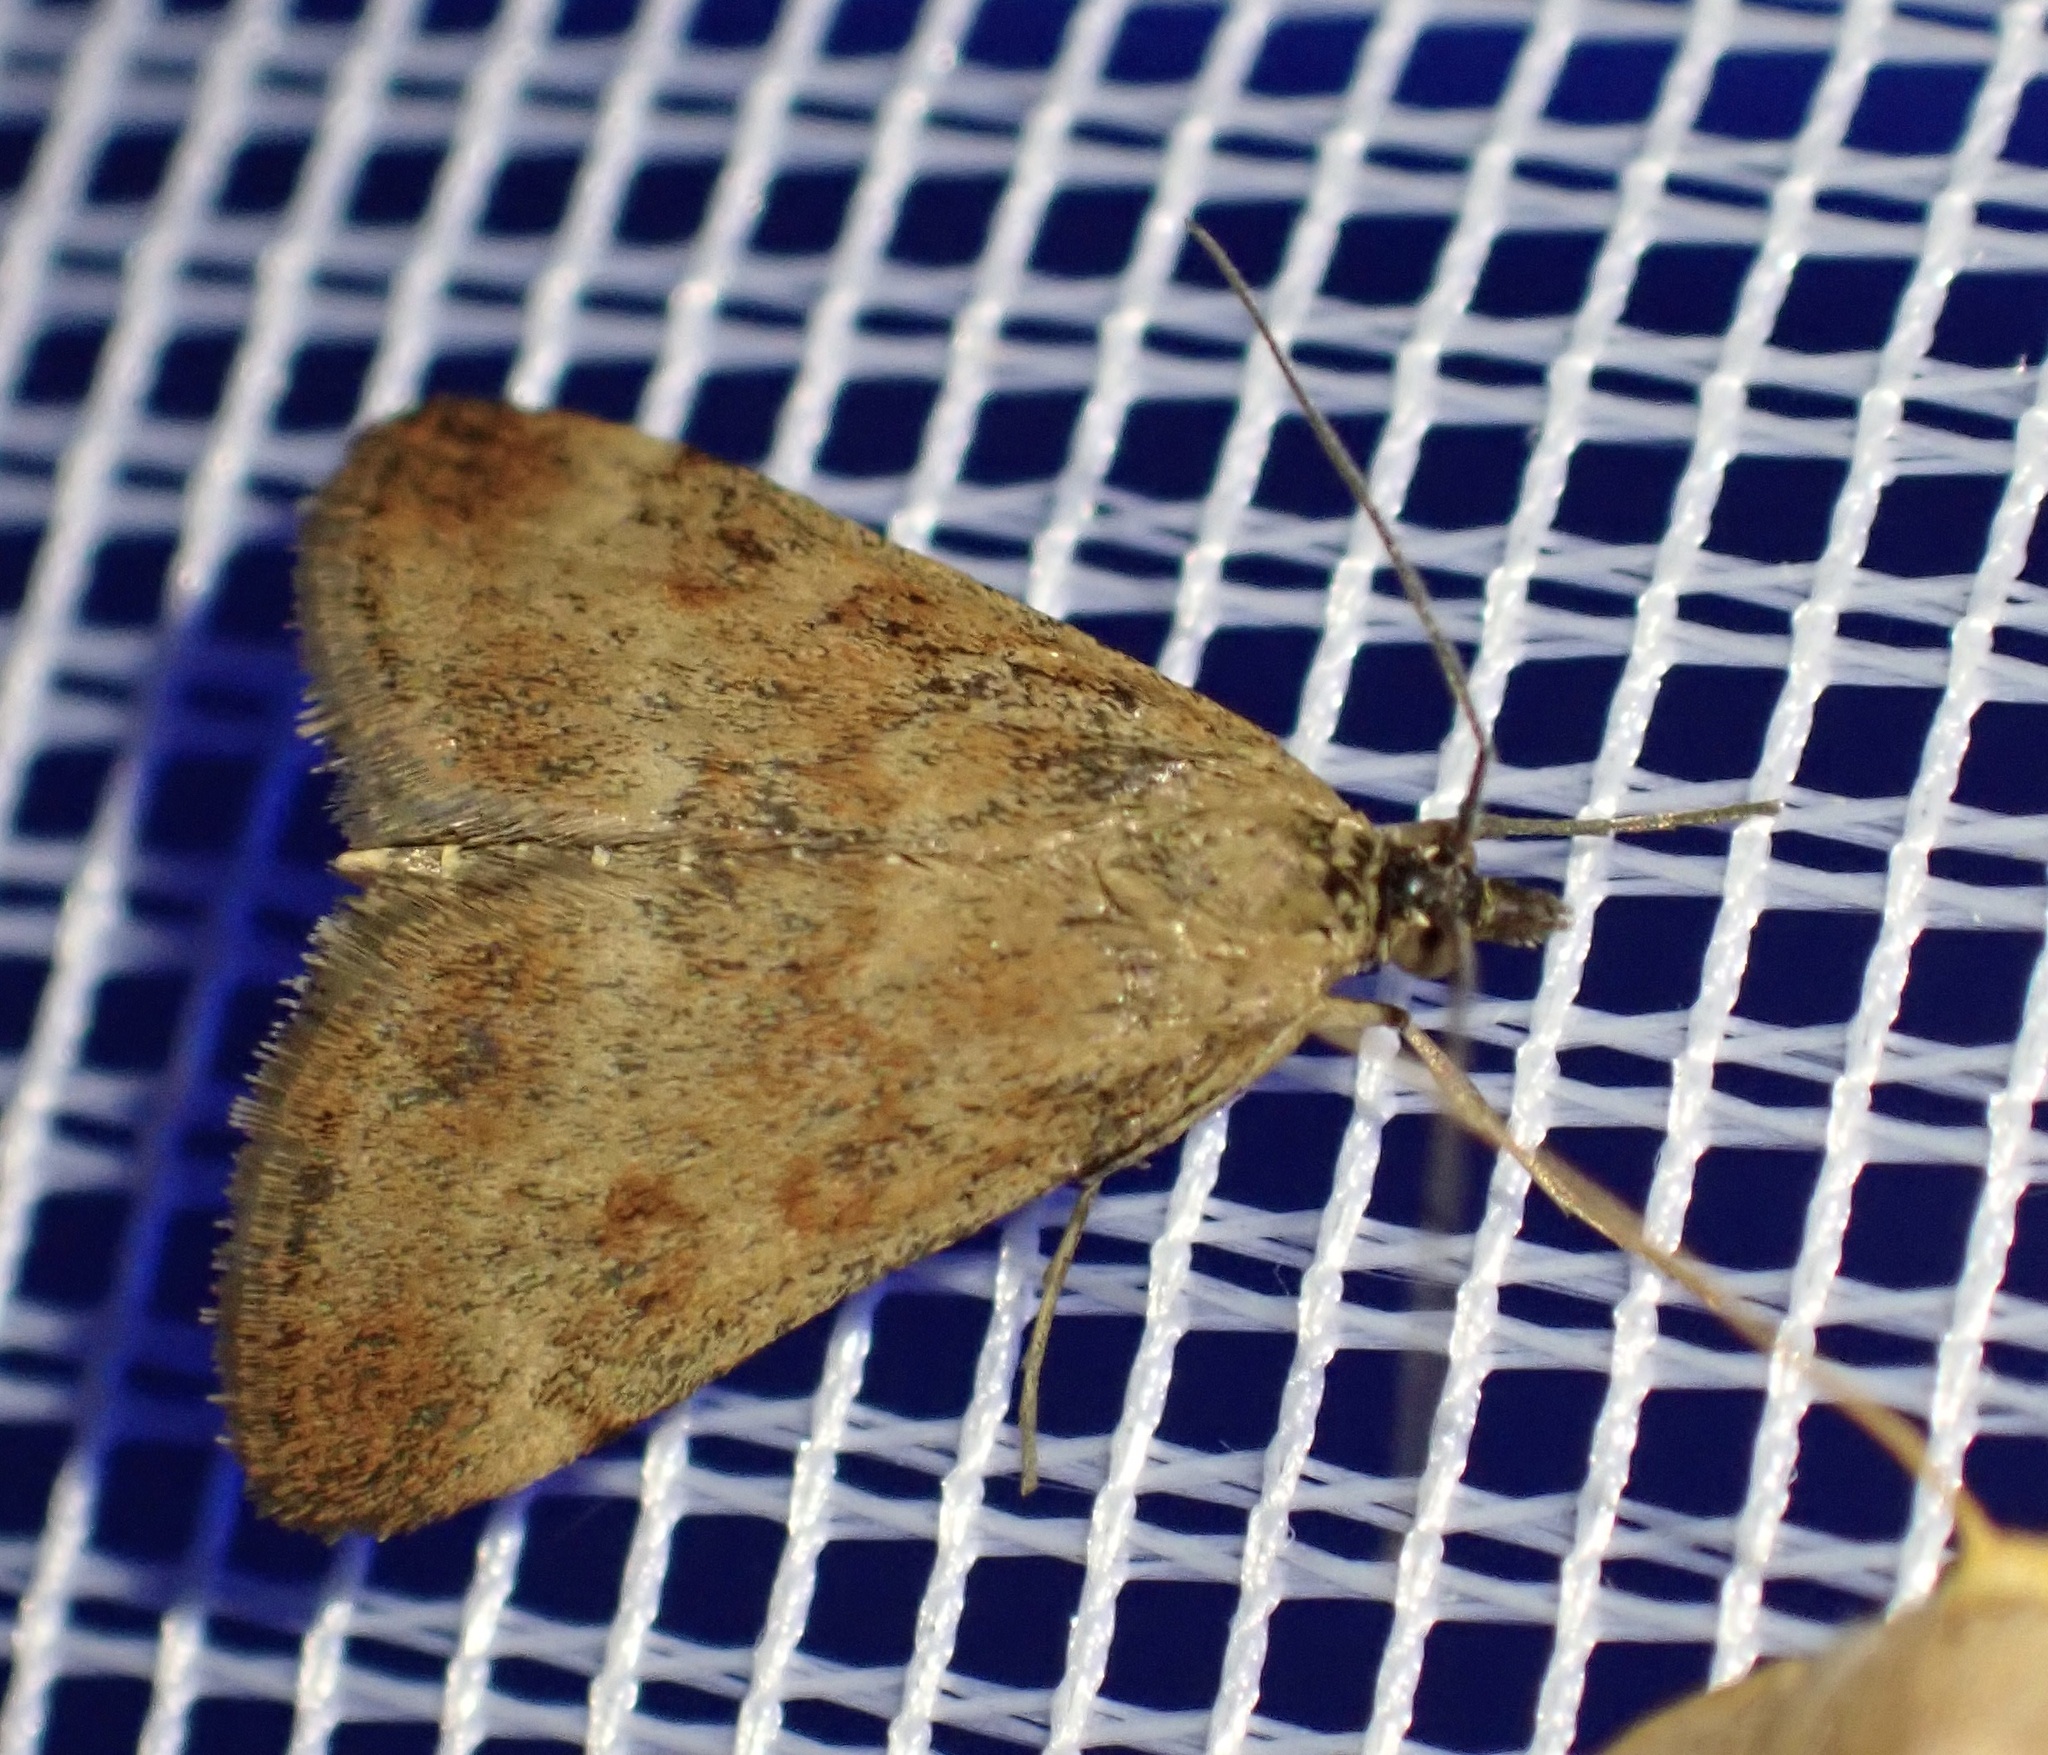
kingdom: Animalia
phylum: Arthropoda
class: Insecta
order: Lepidoptera
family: Crambidae
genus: Pyrausta
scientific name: Pyrausta despicata
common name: Straw-barred pearl
